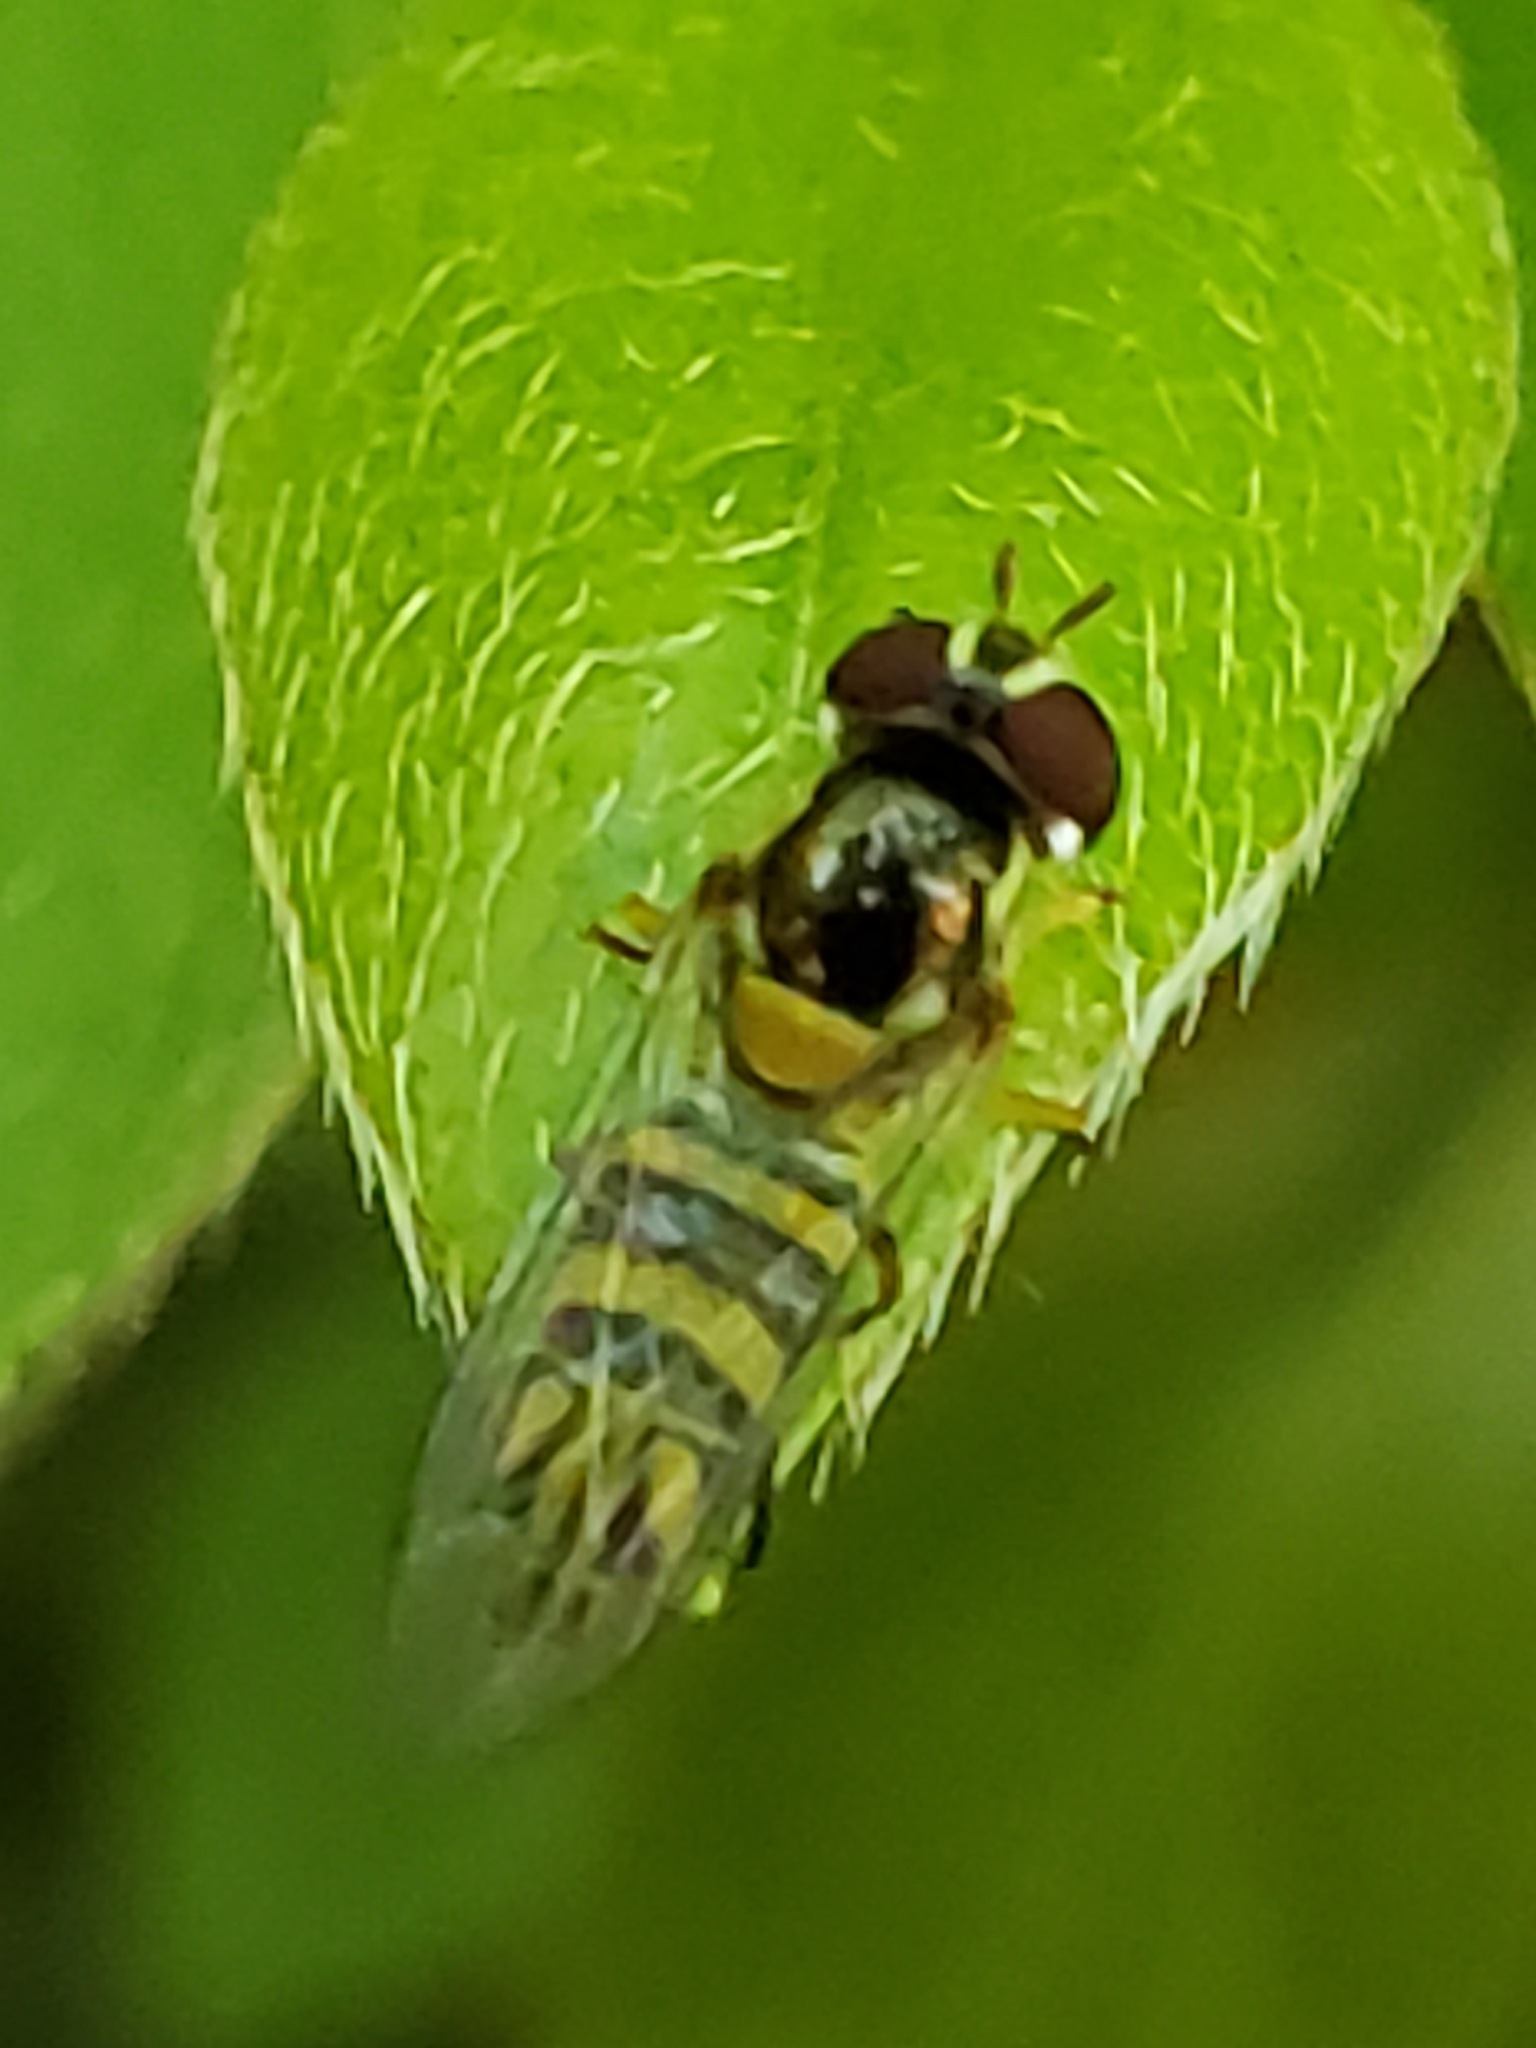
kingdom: Animalia
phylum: Arthropoda
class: Insecta
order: Diptera
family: Syrphidae
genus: Allograpta
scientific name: Allograpta obliqua
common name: Common oblique syrphid
